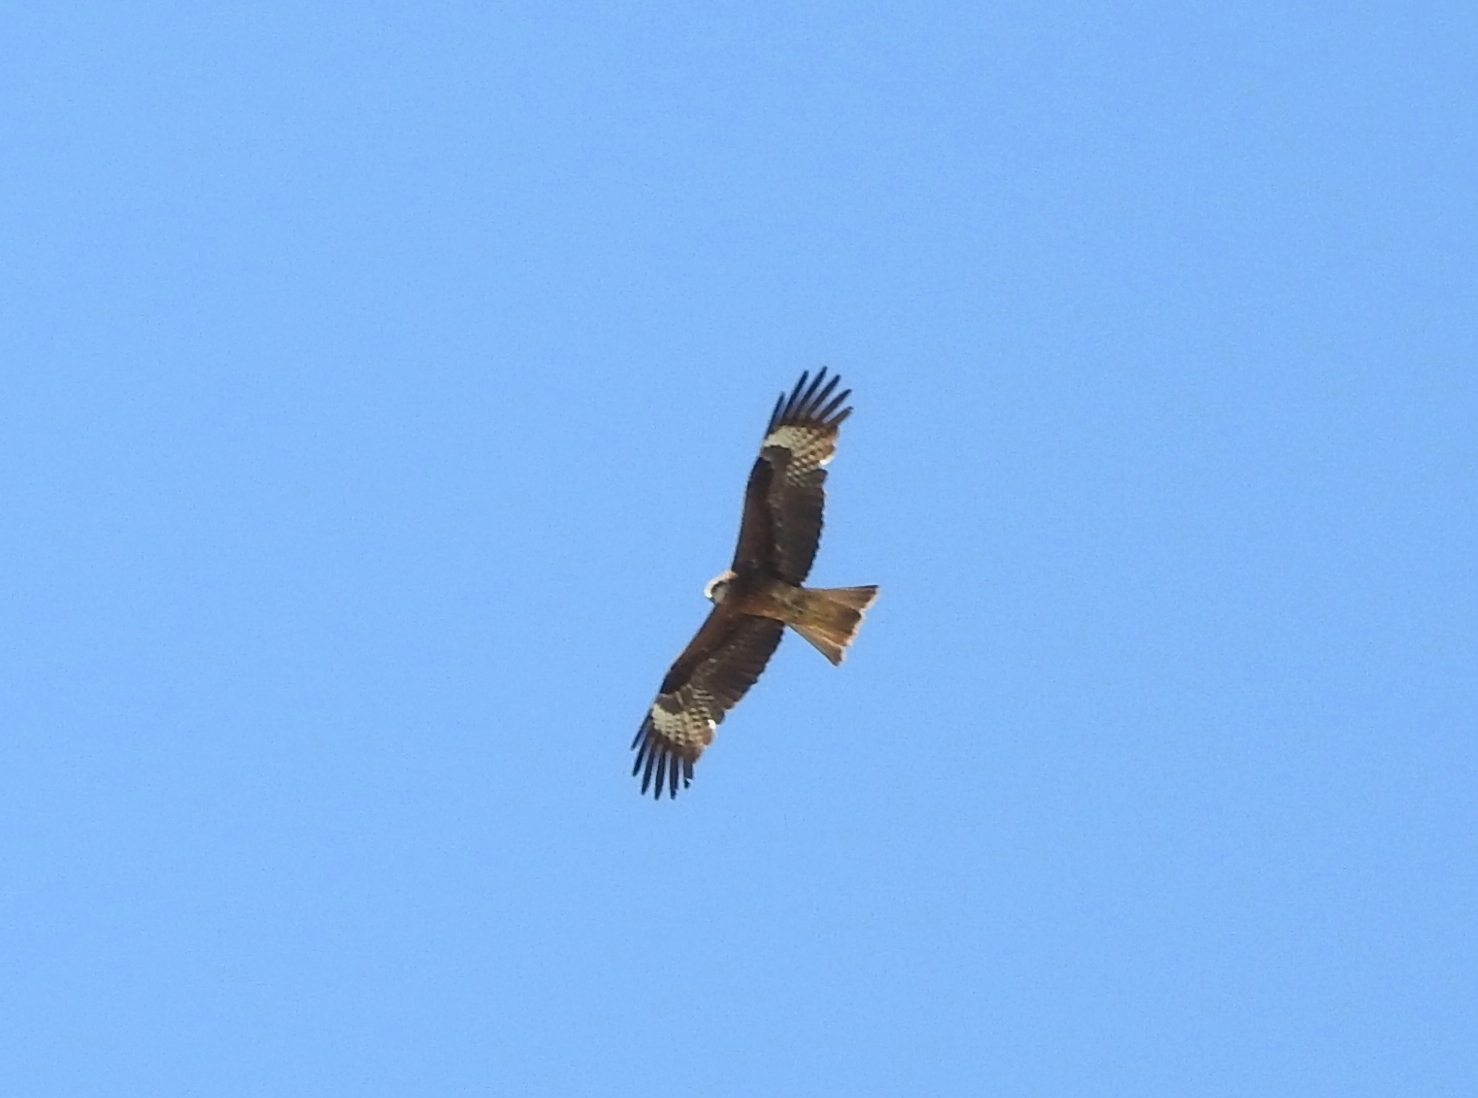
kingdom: Animalia
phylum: Chordata
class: Aves
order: Accipitriformes
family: Accipitridae
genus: Milvus
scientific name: Milvus migrans
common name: Black kite
